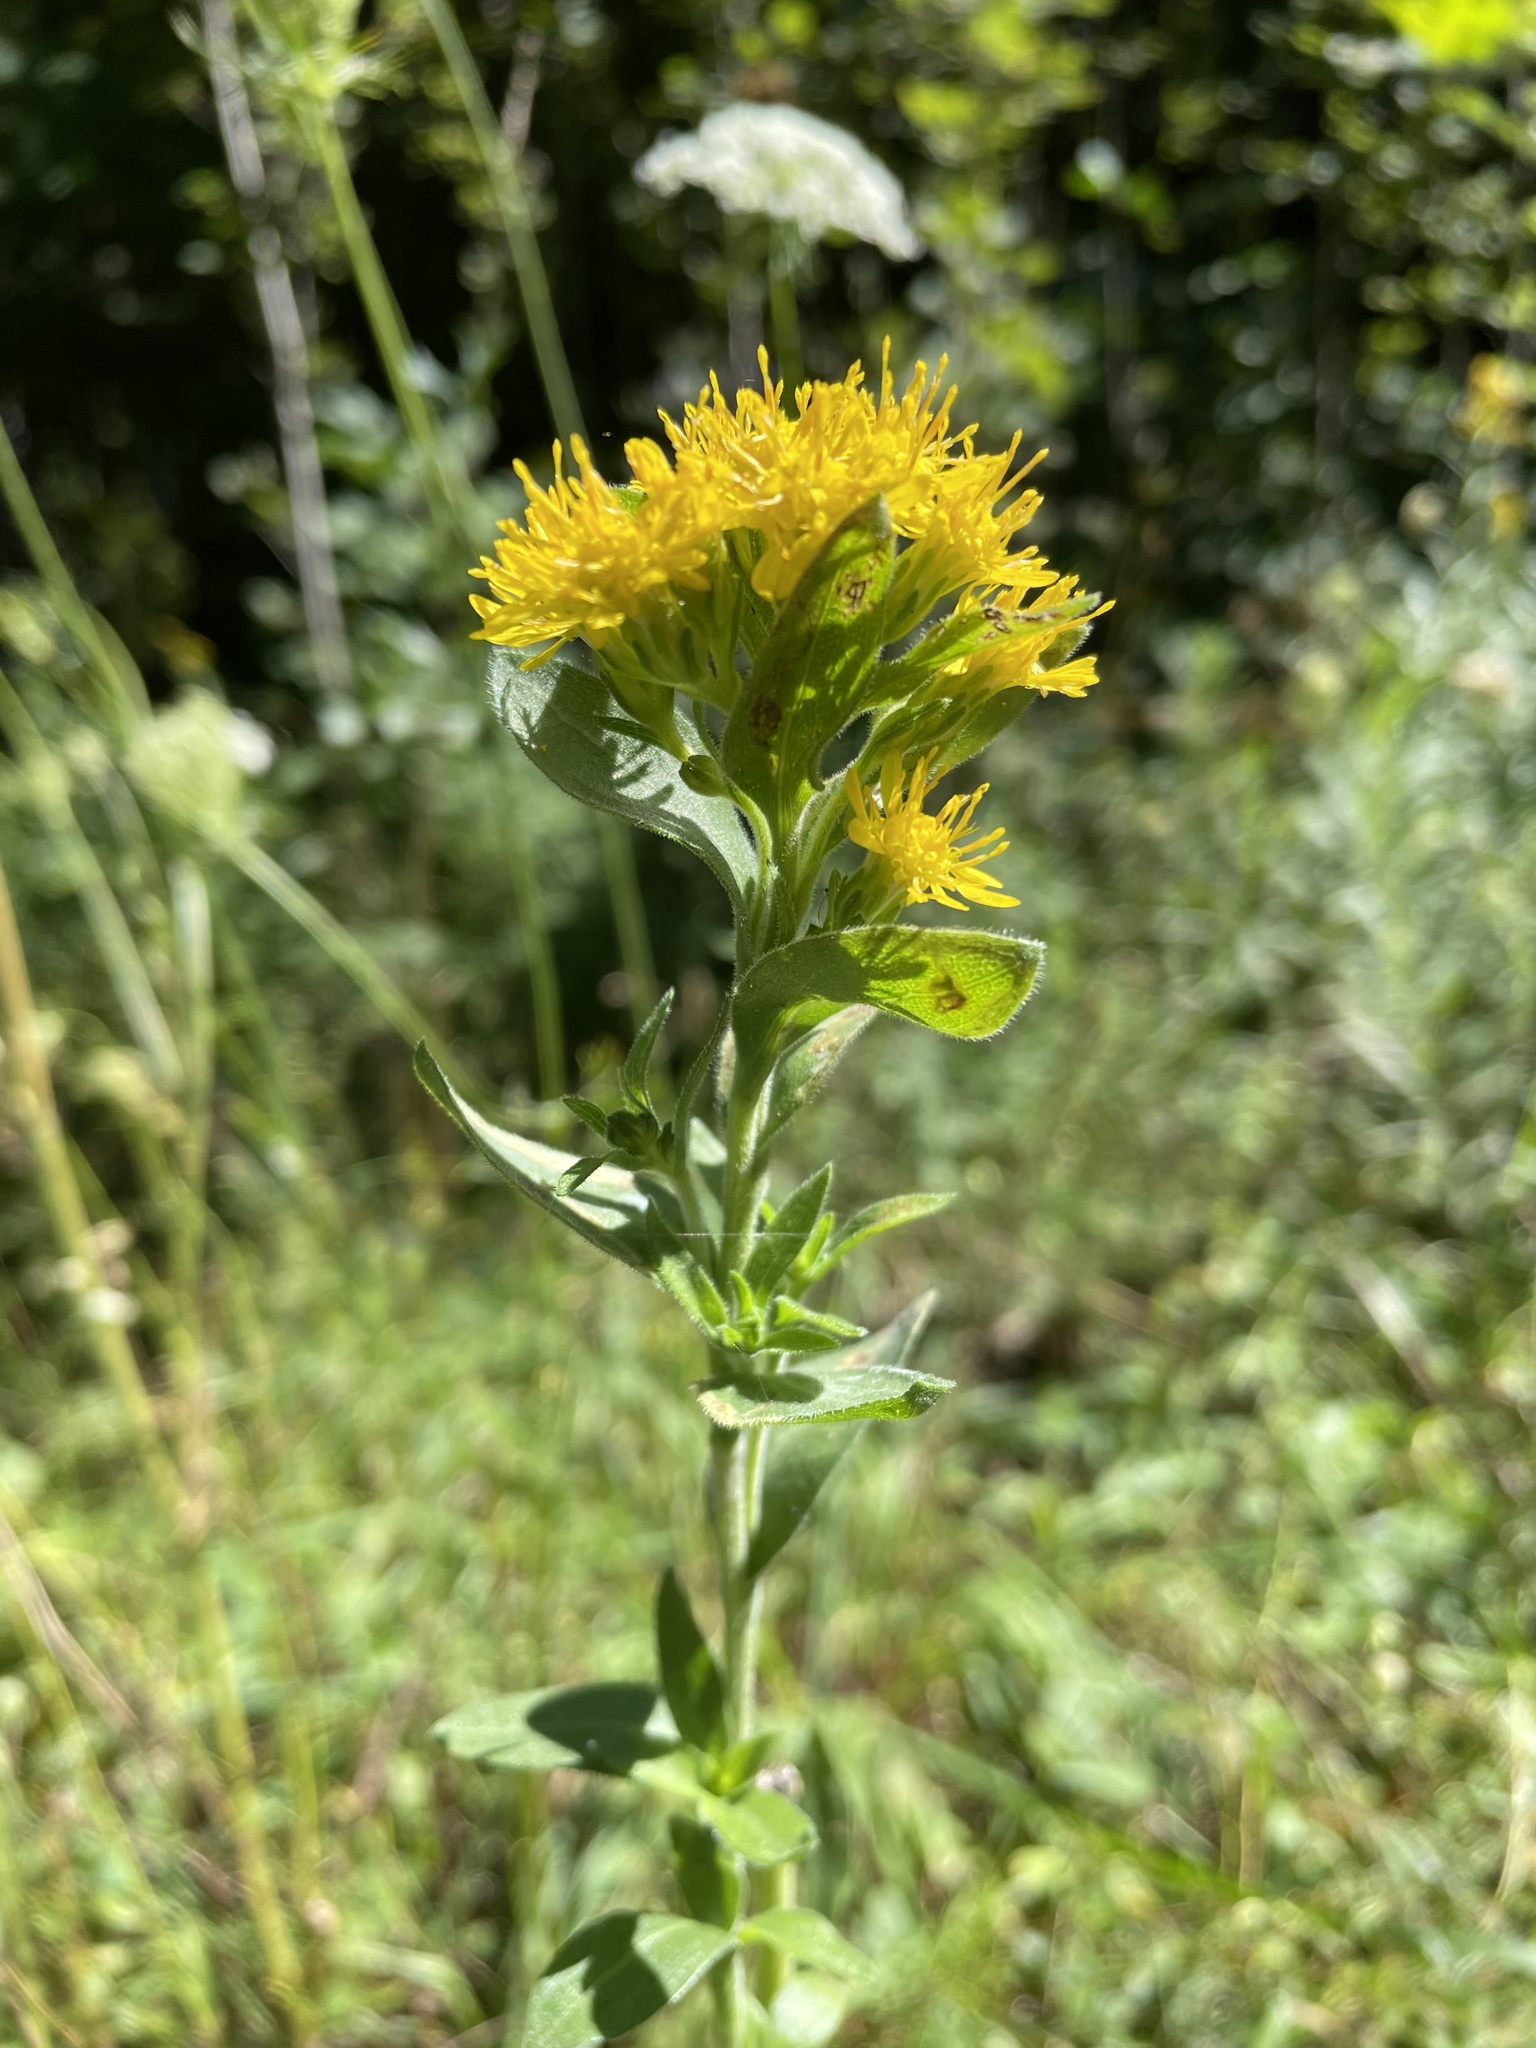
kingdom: Plantae
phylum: Tracheophyta
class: Magnoliopsida
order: Asterales
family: Asteraceae
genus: Solidago
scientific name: Solidago rigida
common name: Rigid goldenrod
